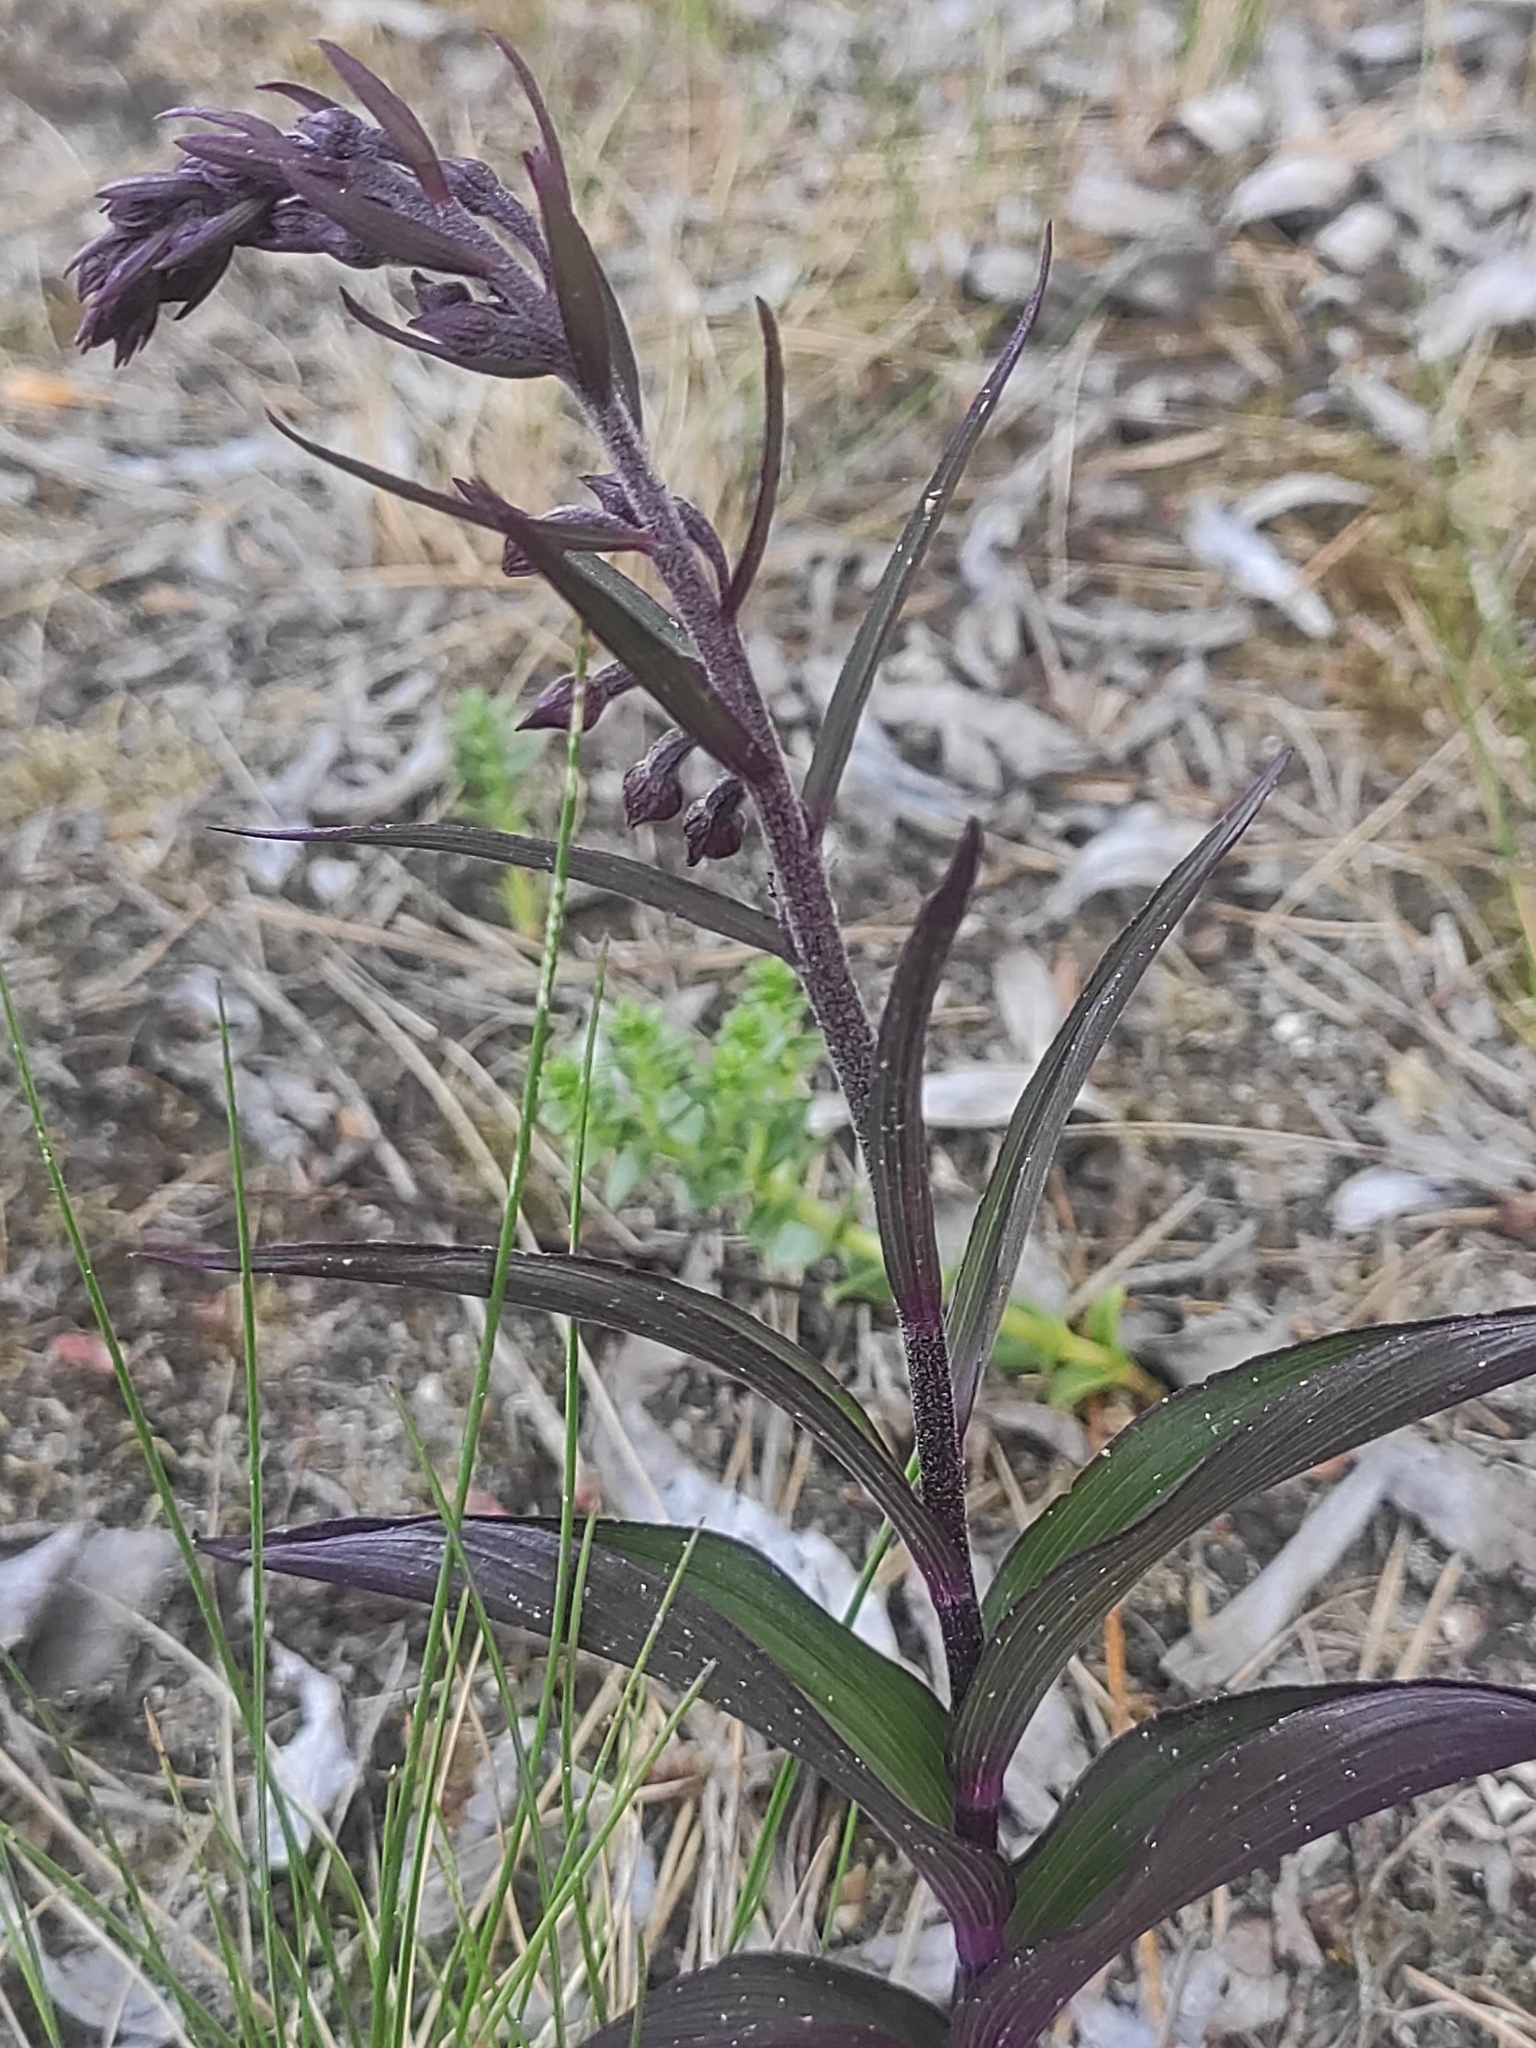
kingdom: Plantae
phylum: Tracheophyta
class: Liliopsida
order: Asparagales
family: Orchidaceae
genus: Epipactis
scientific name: Epipactis atrorubens
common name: Dark-red helleborine
